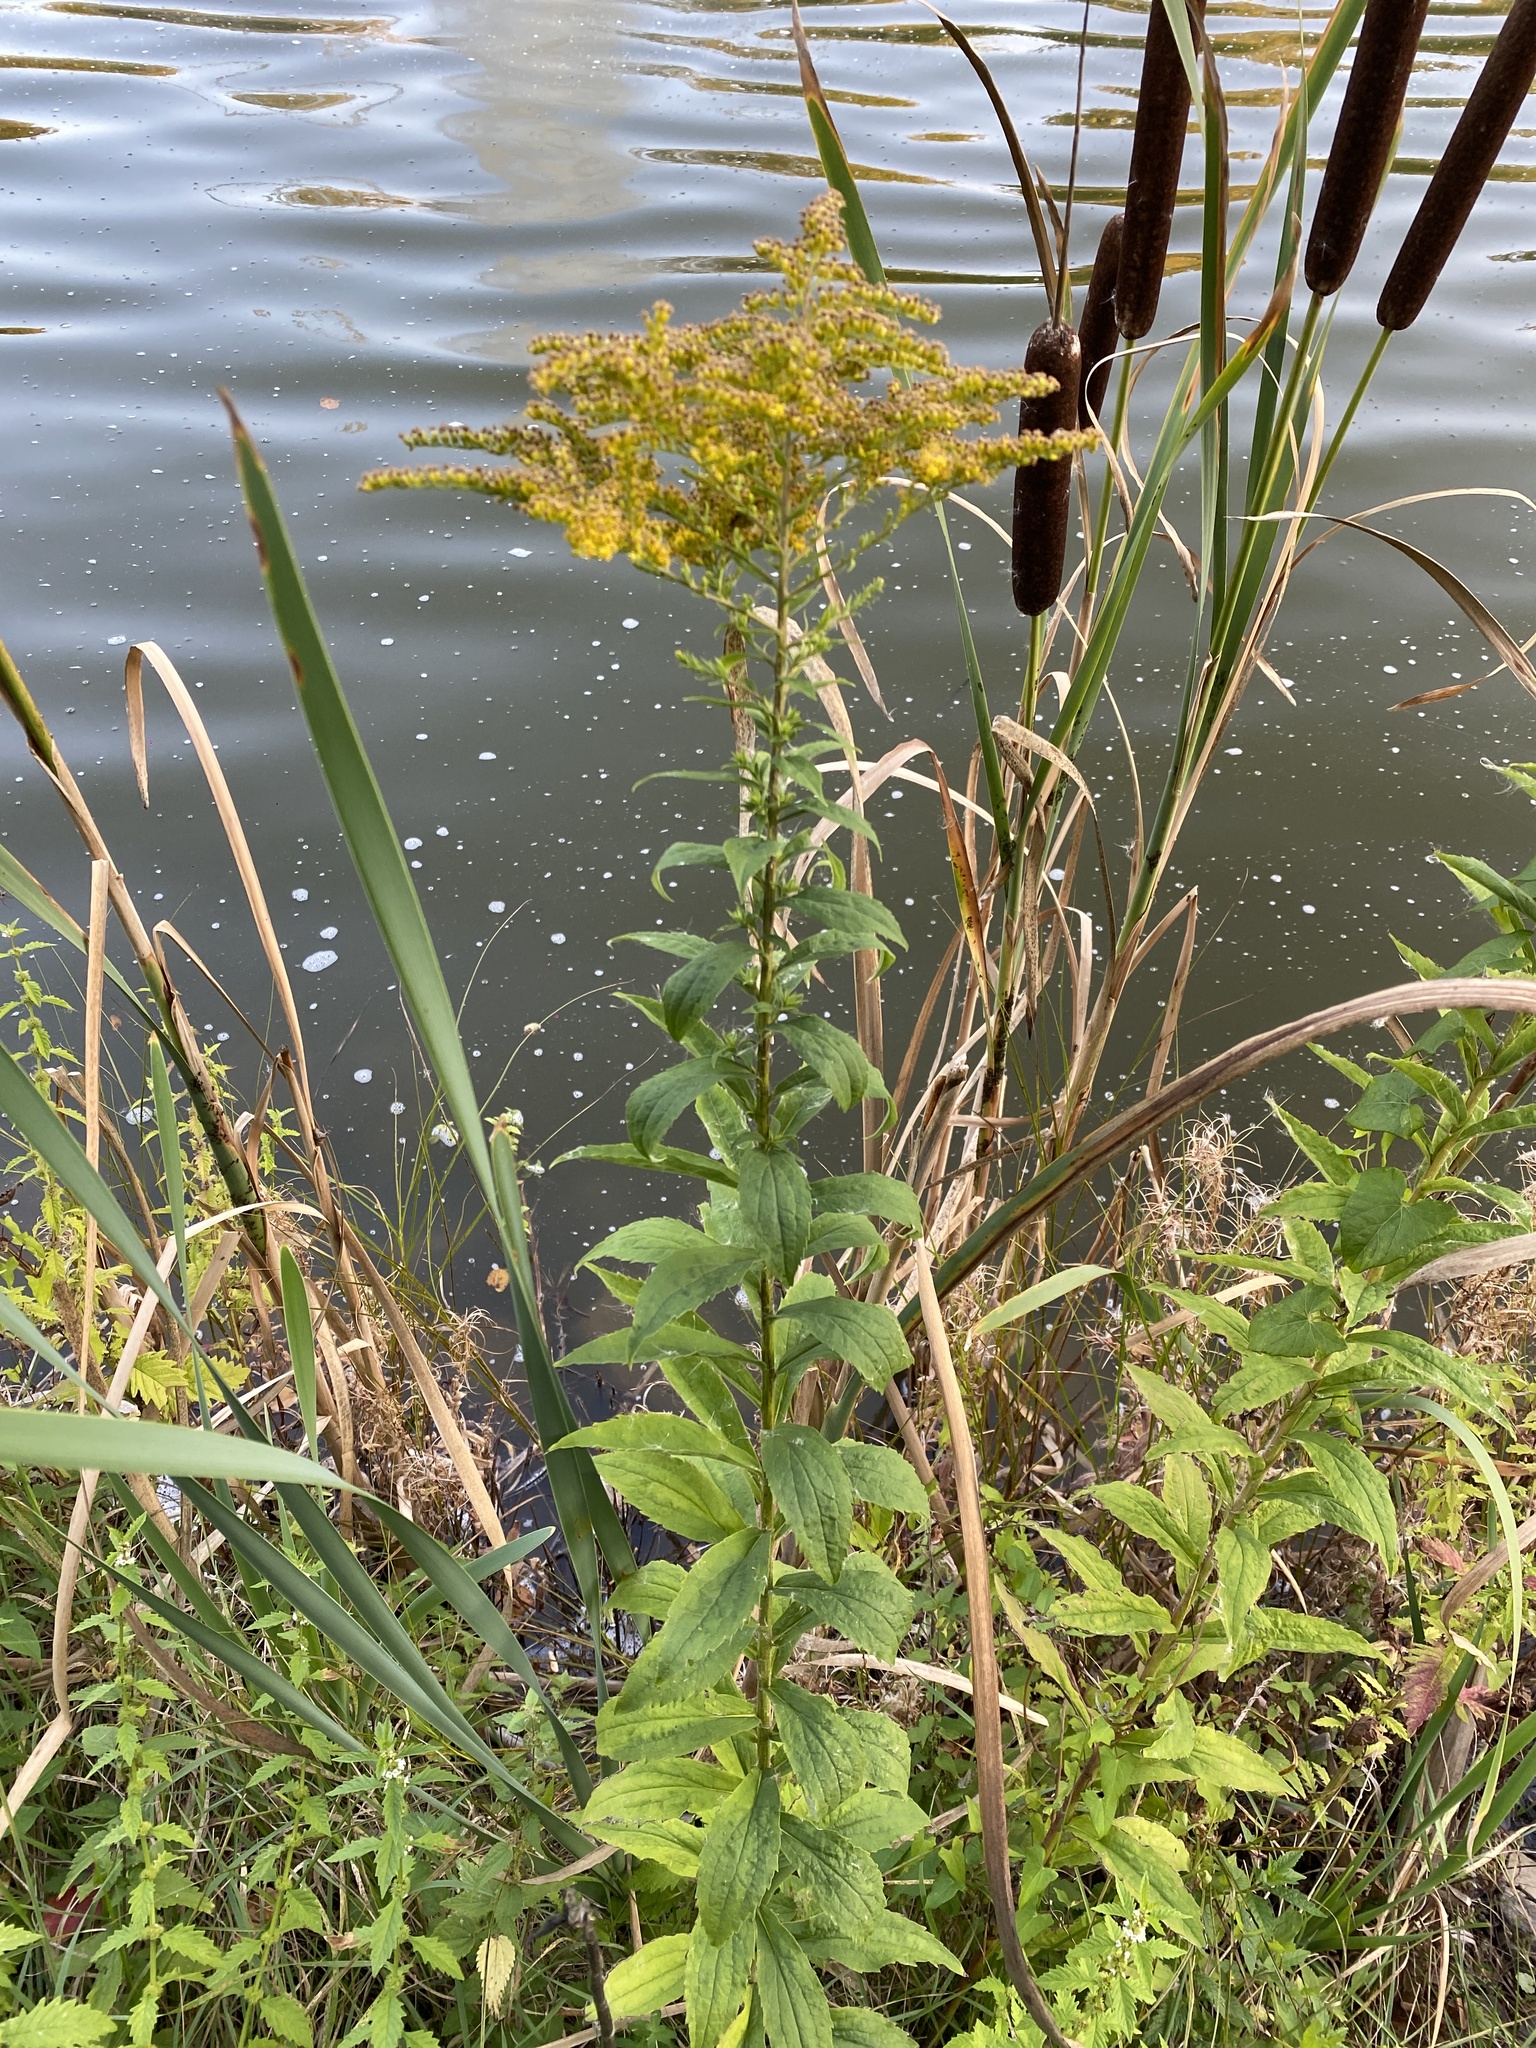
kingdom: Plantae
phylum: Tracheophyta
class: Magnoliopsida
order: Asterales
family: Asteraceae
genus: Solidago
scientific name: Solidago canadensis
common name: Canada goldenrod
